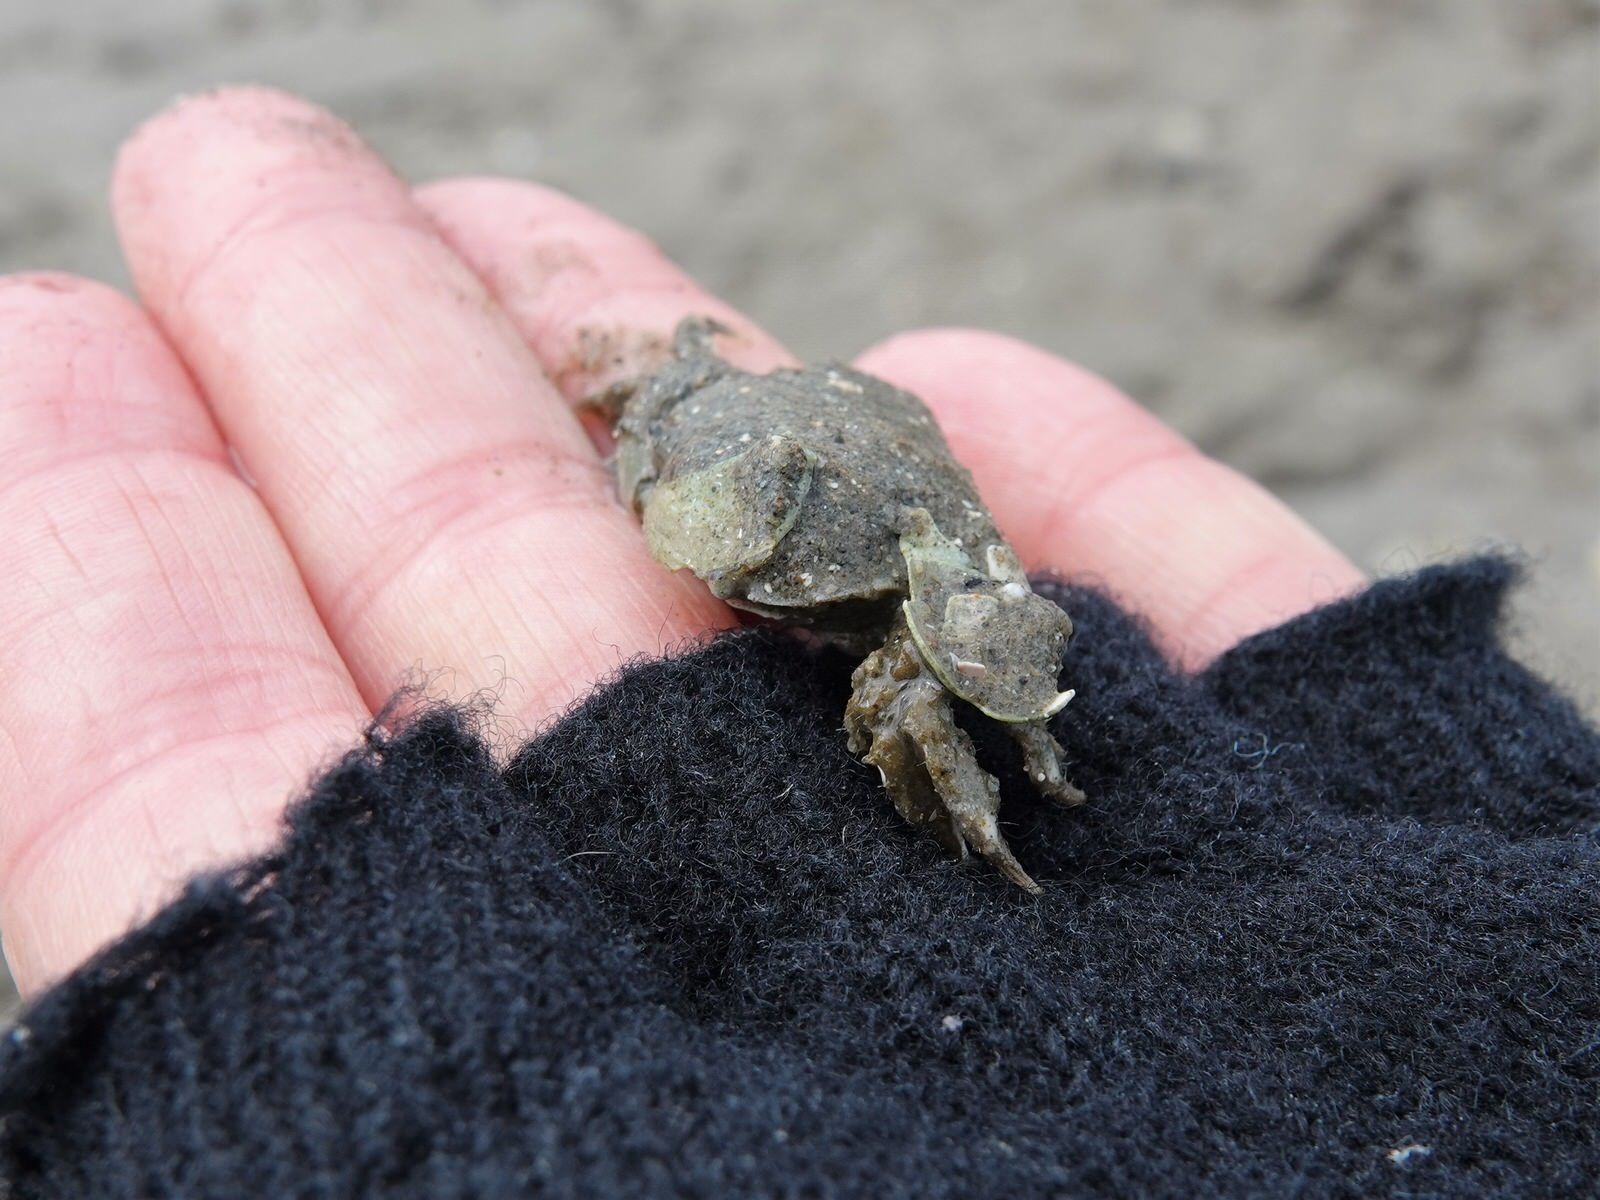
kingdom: Animalia
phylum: Arthropoda
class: Malacostraca
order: Decapoda
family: Varunidae
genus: Hemigrapsus
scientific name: Hemigrapsus crenulatus
